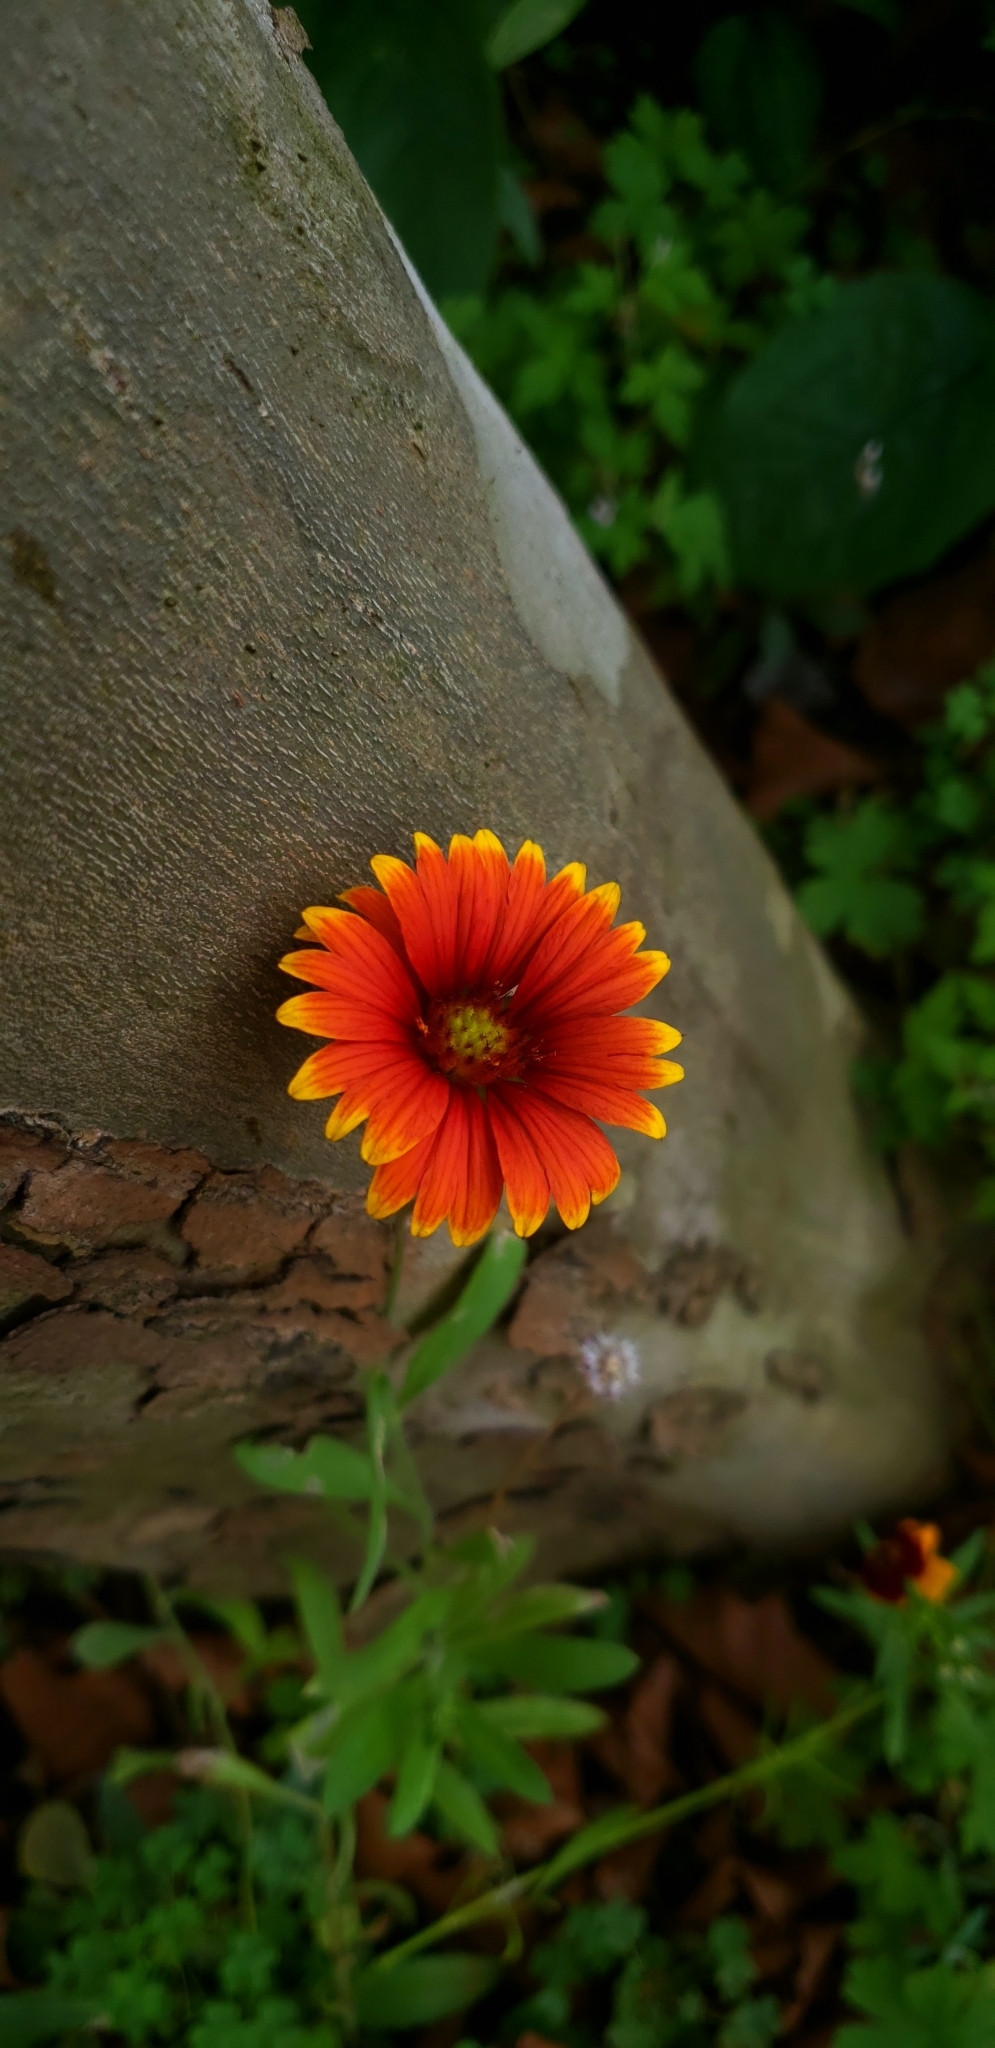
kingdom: Plantae
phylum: Tracheophyta
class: Magnoliopsida
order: Asterales
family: Asteraceae
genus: Gaillardia
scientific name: Gaillardia pulchella
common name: Firewheel
